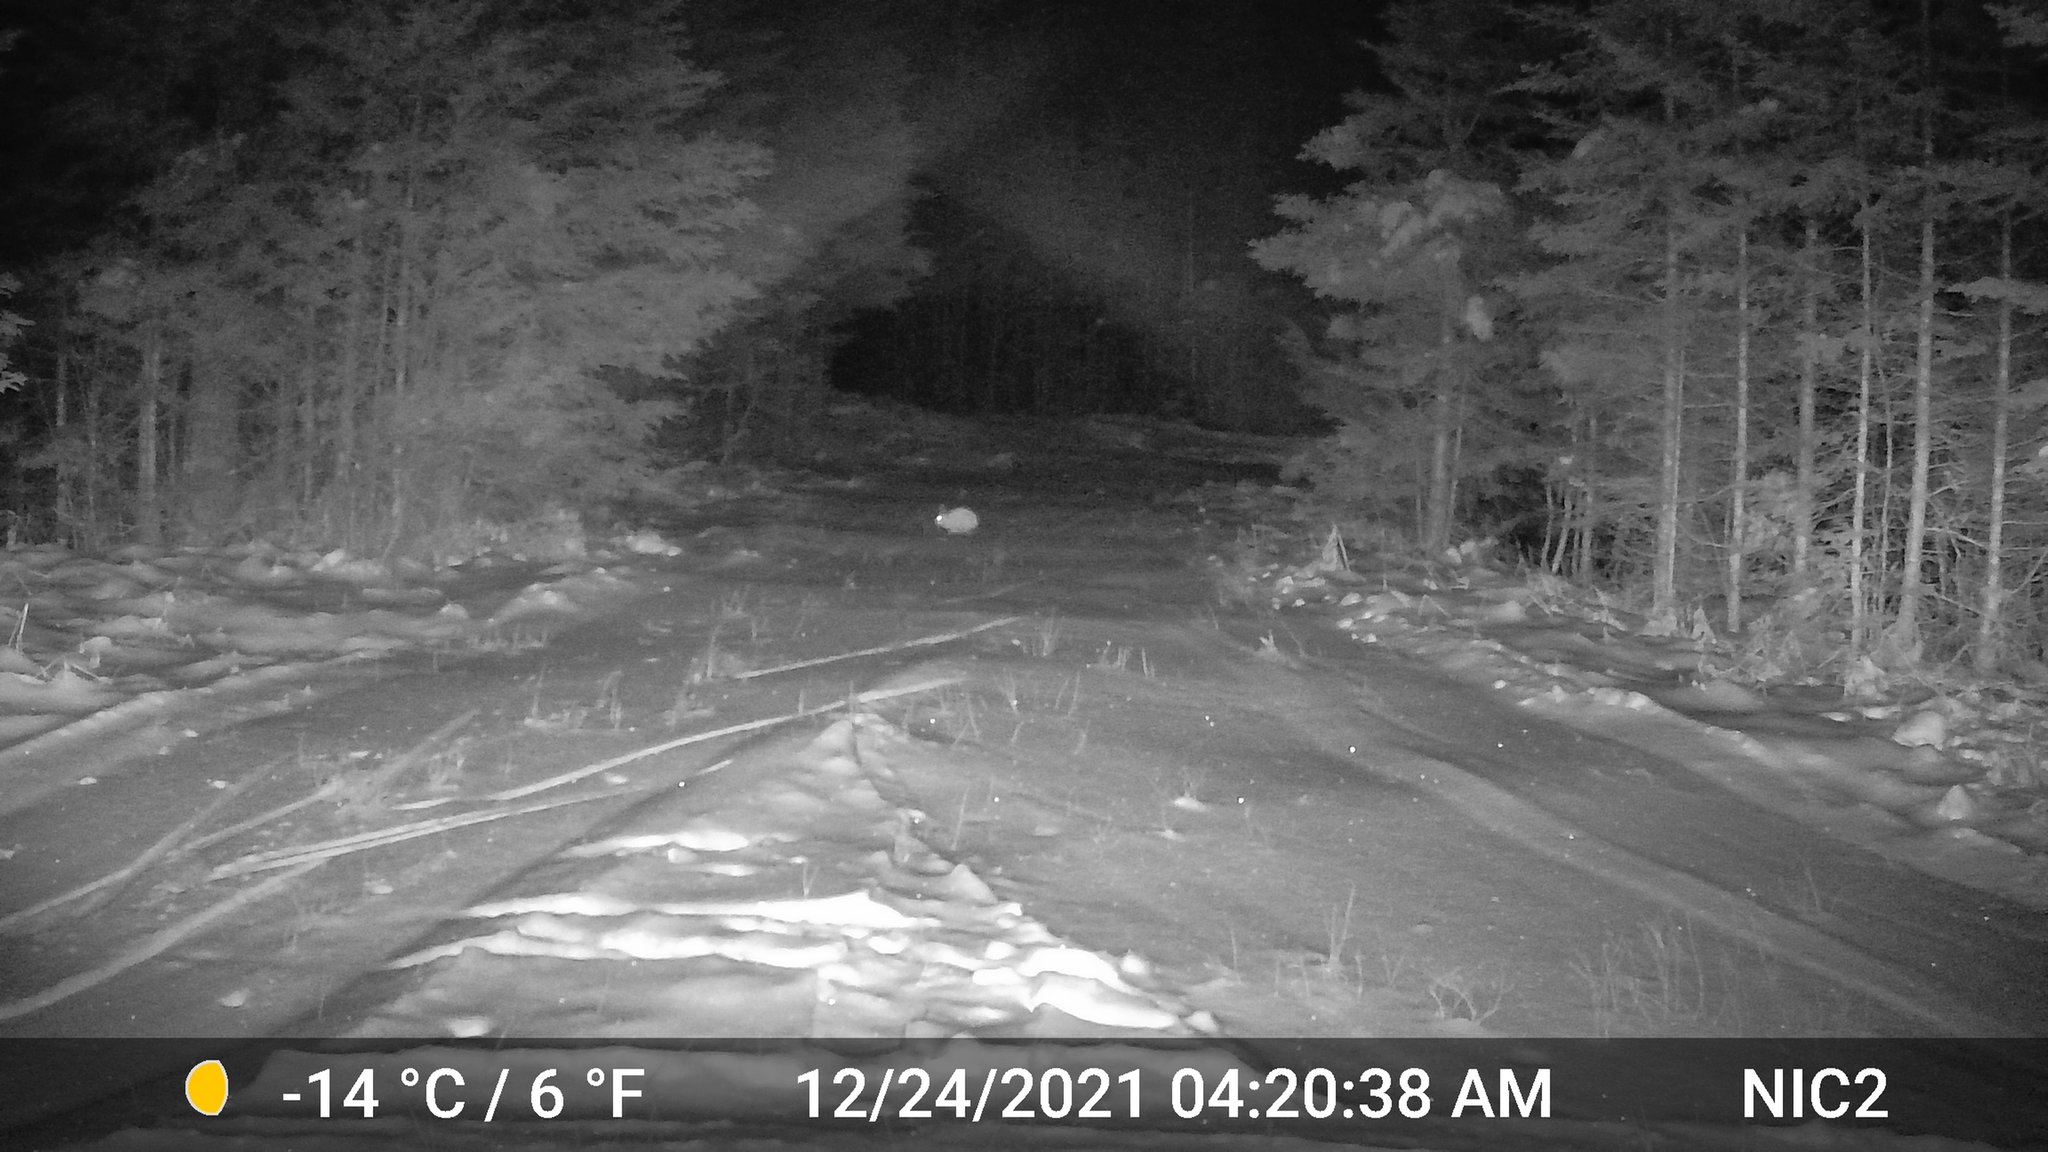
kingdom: Animalia
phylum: Chordata
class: Mammalia
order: Lagomorpha
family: Leporidae
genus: Lepus
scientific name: Lepus americanus
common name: Snowshoe hare
